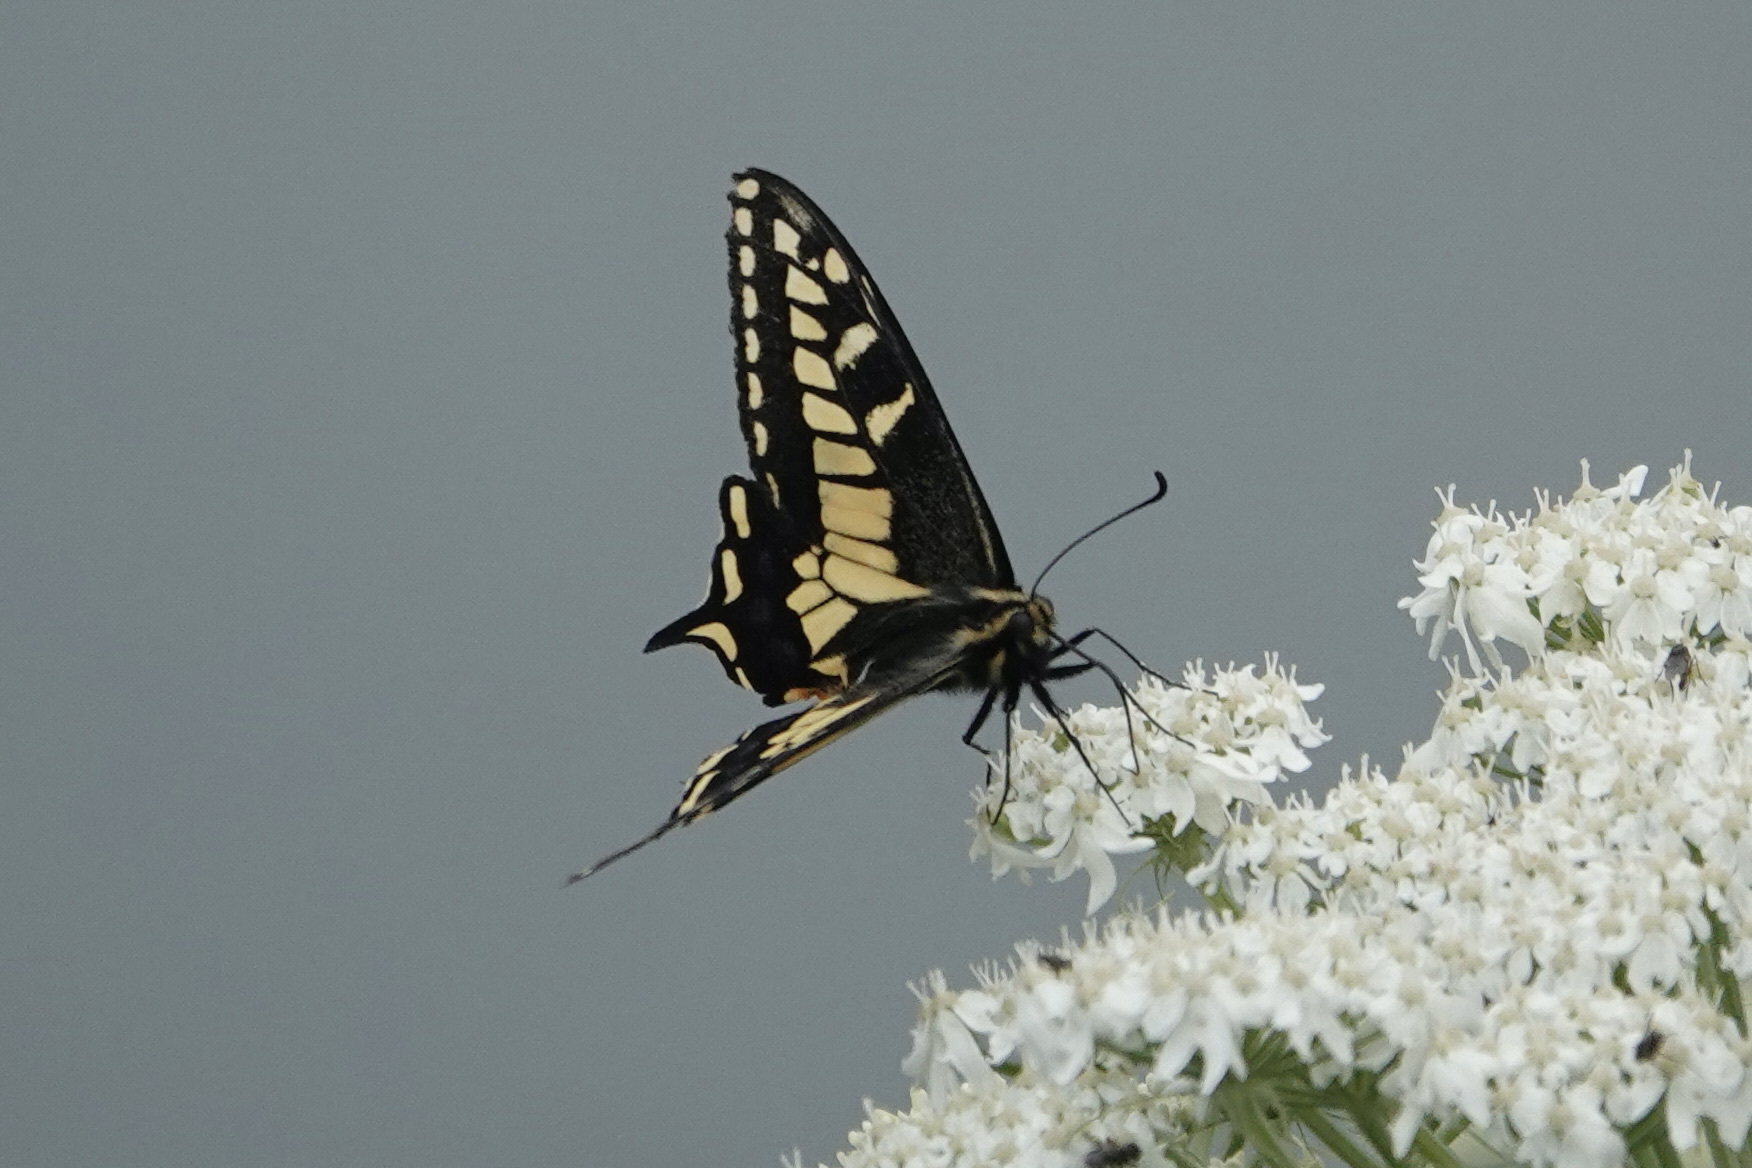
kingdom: Animalia
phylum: Arthropoda
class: Insecta
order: Lepidoptera
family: Papilionidae
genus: Papilio
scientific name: Papilio zelicaon
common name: Anise swallowtail
